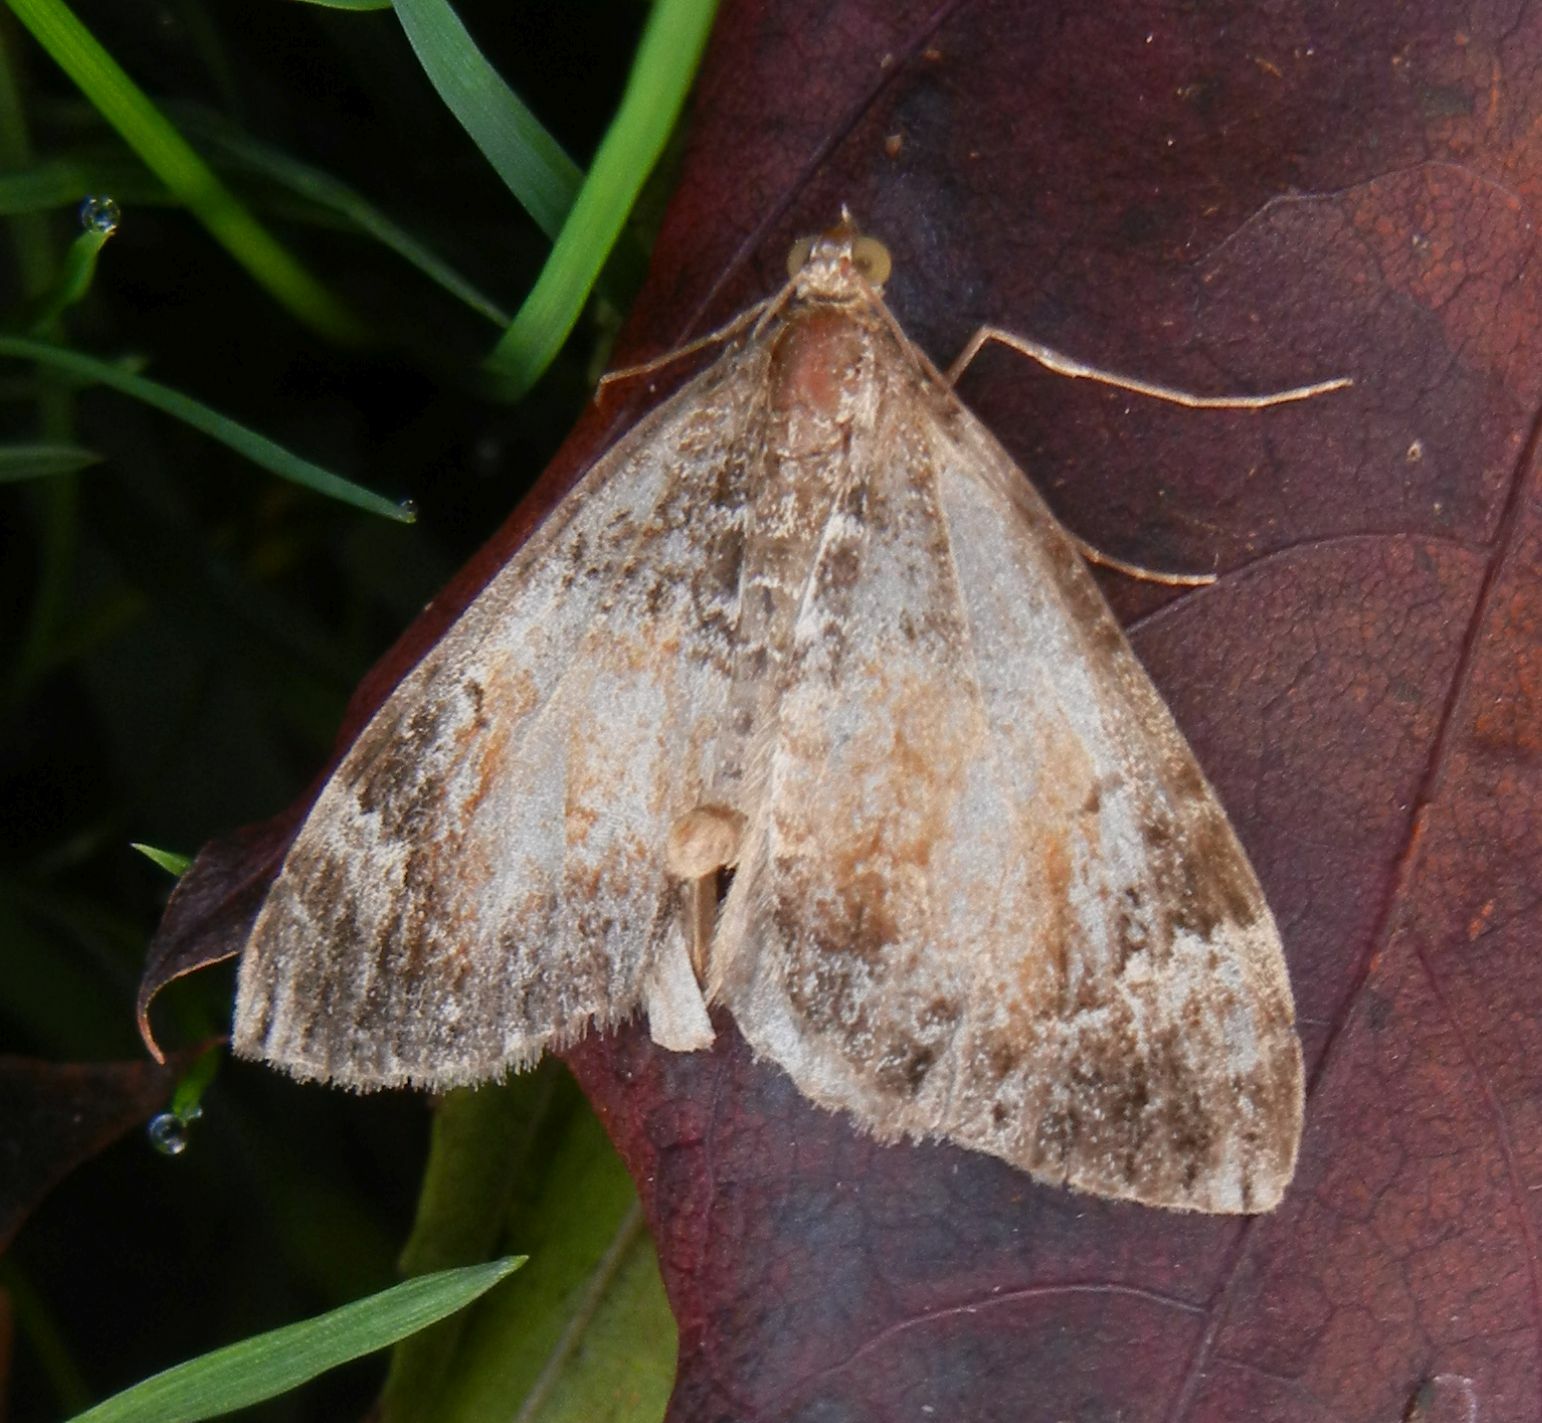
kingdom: Animalia
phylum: Arthropoda
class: Insecta
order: Lepidoptera
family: Geometridae
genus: Dysstroma
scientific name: Dysstroma truncata
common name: Common marbled carpet
